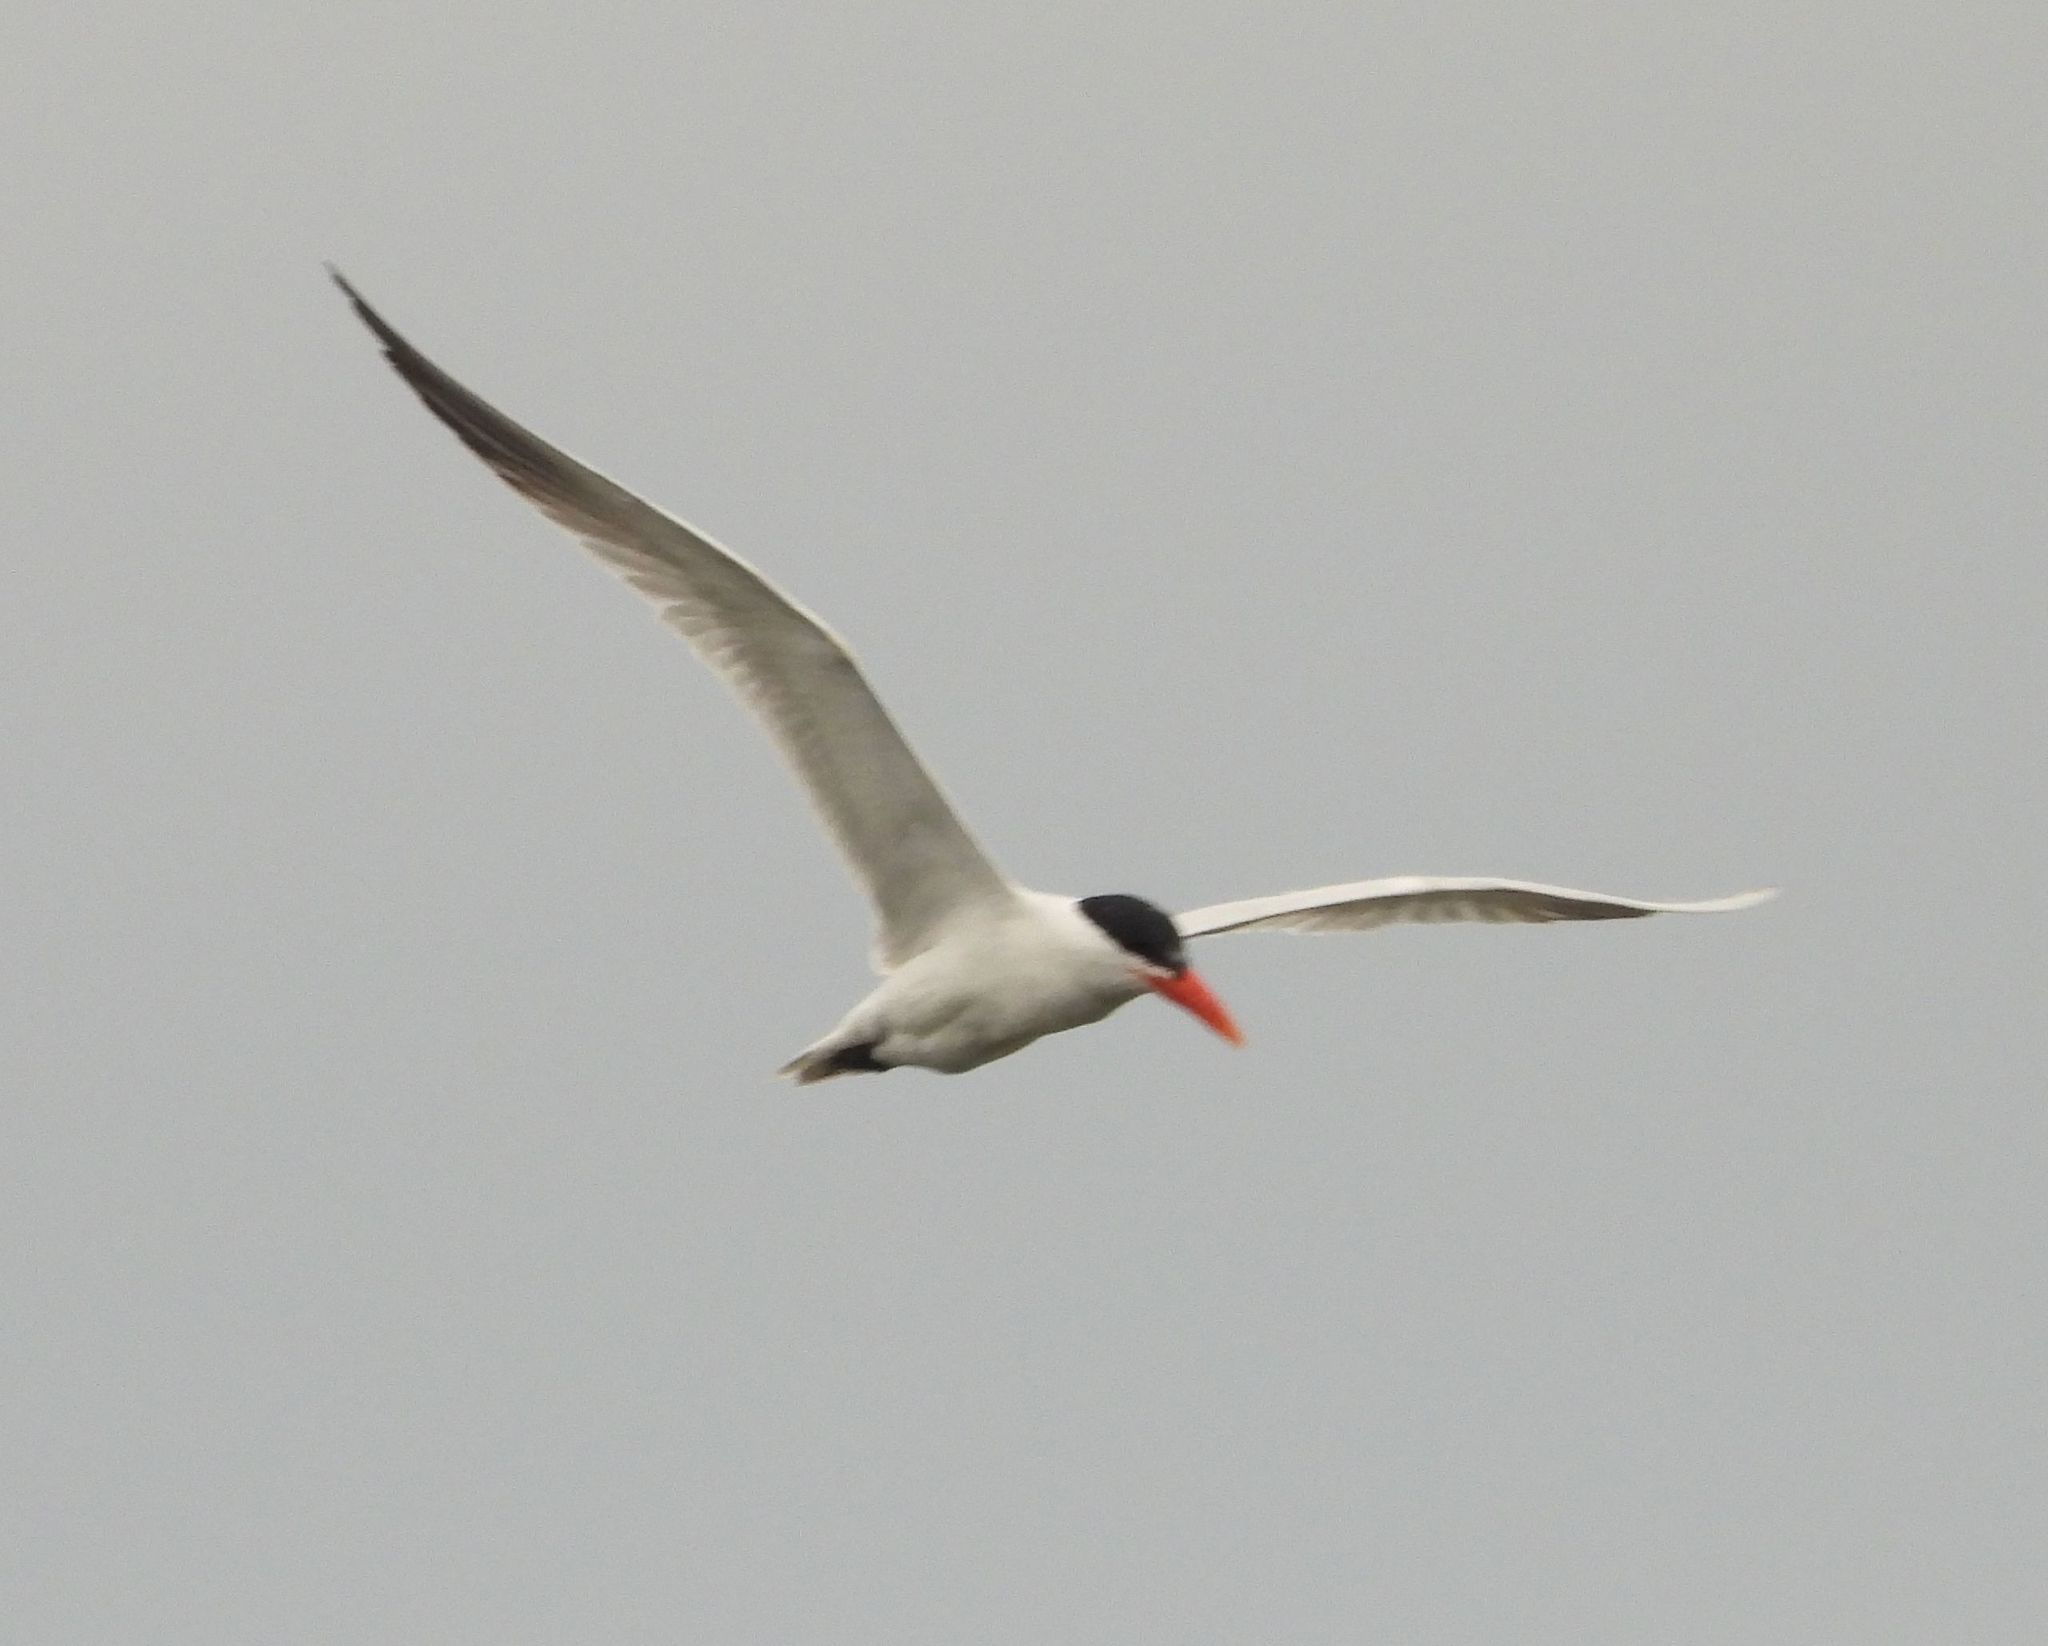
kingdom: Animalia
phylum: Chordata
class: Aves
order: Charadriiformes
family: Laridae
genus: Hydroprogne
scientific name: Hydroprogne caspia
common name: Caspian tern
